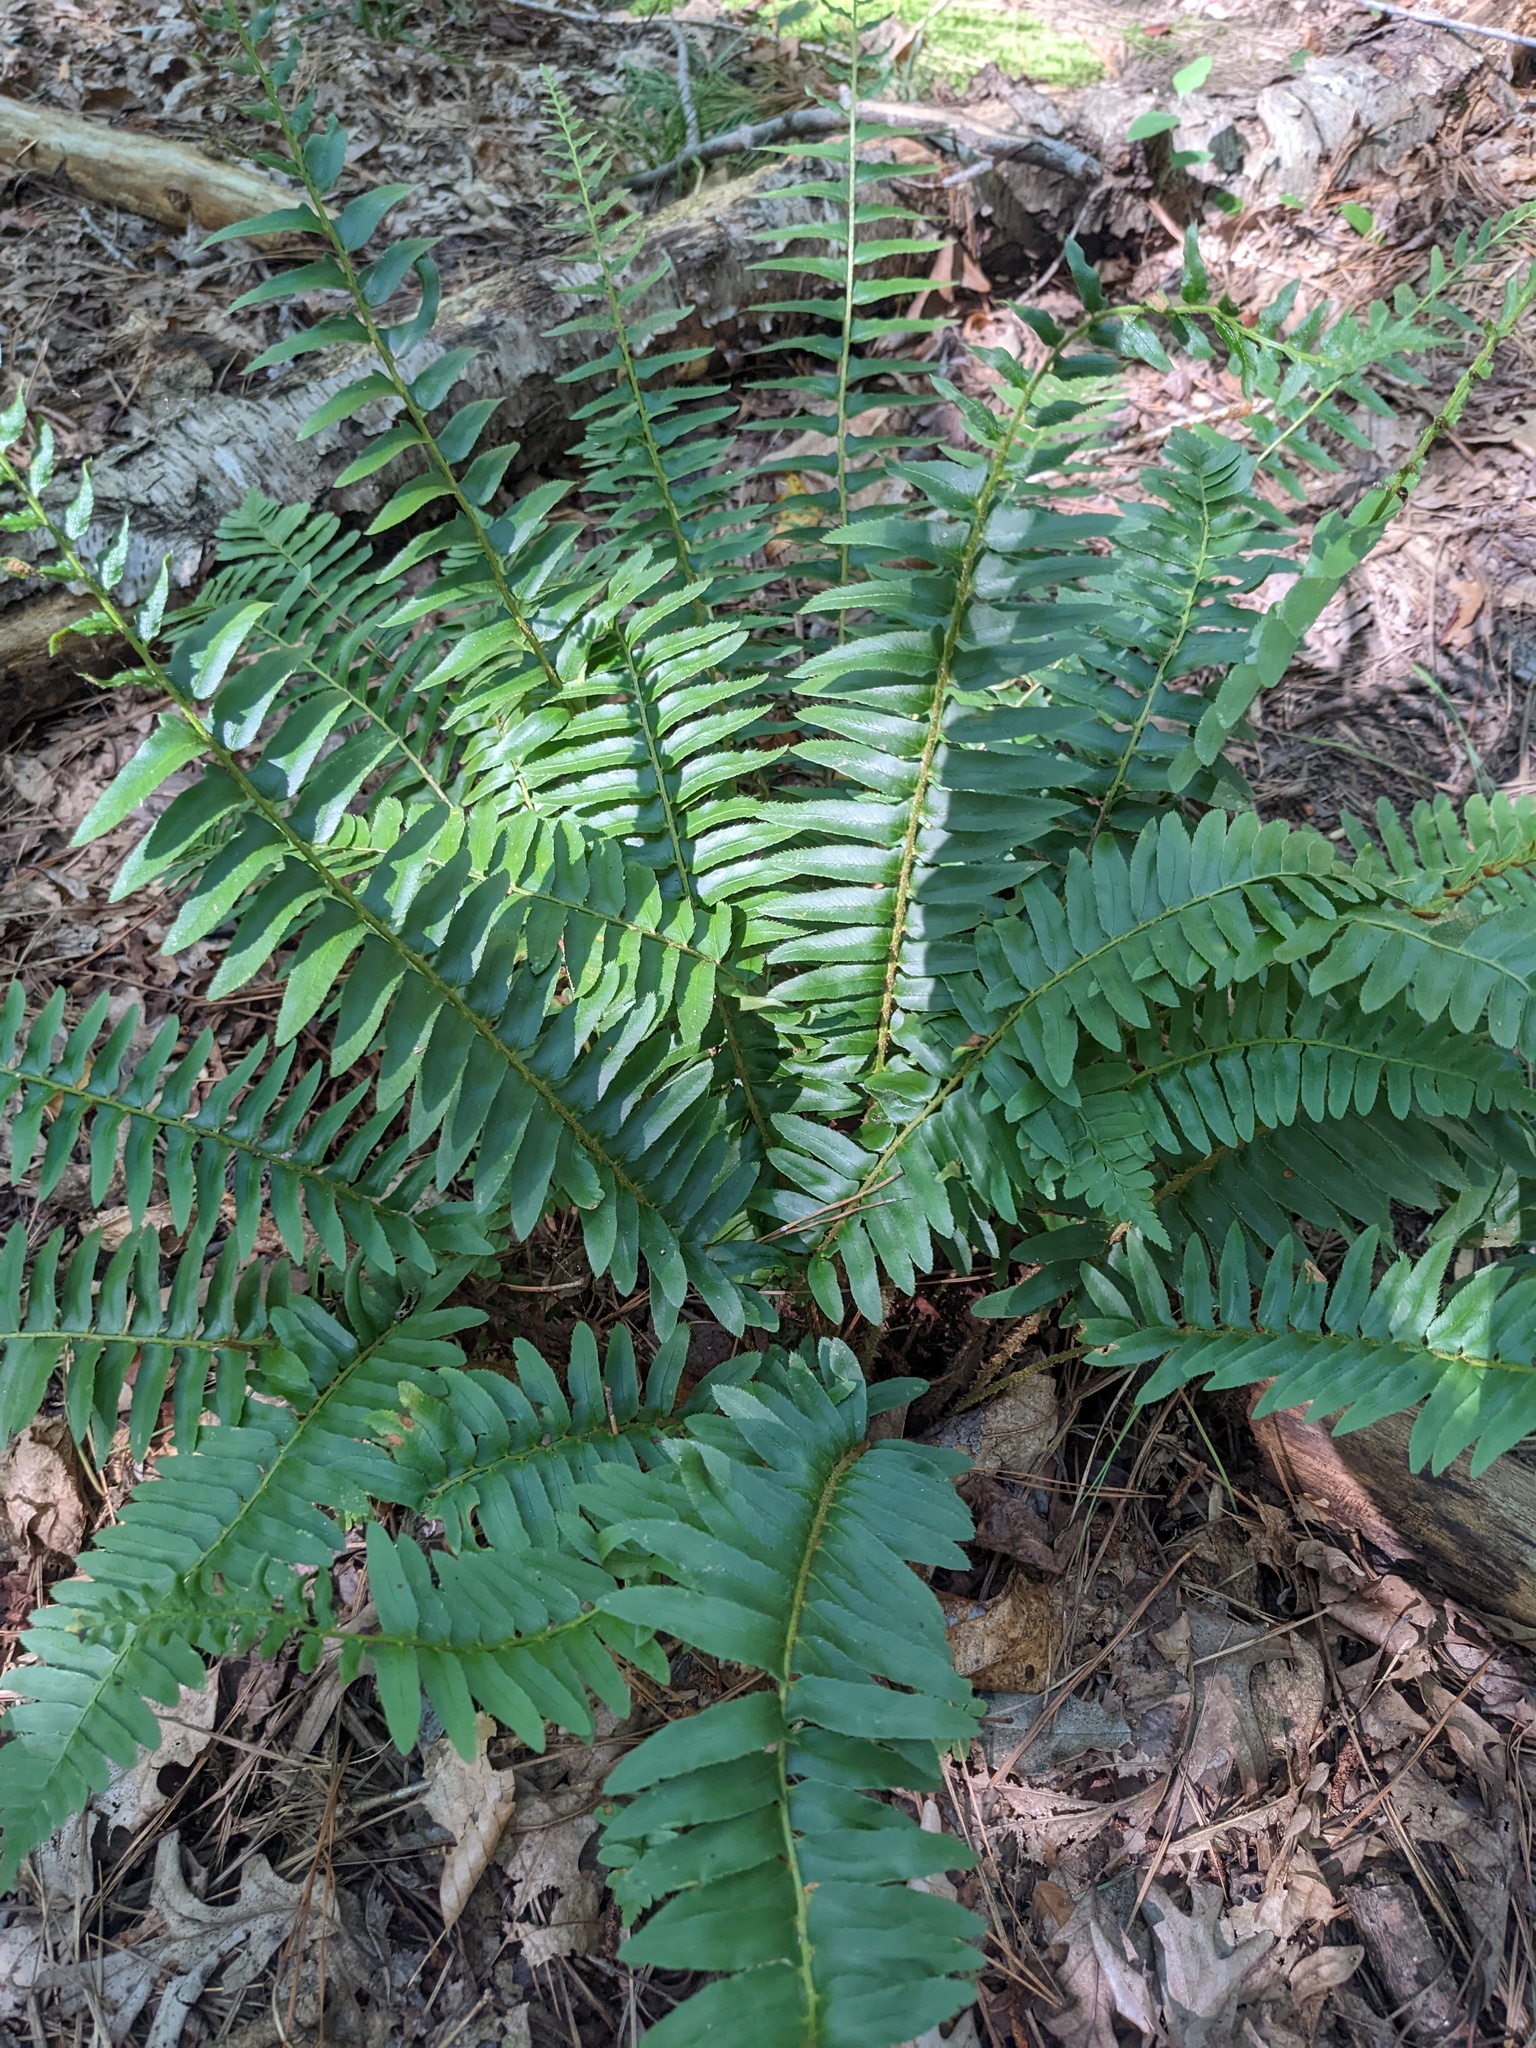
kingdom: Plantae
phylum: Tracheophyta
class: Polypodiopsida
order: Polypodiales
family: Dryopteridaceae
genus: Polystichum
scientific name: Polystichum acrostichoides
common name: Christmas fern
